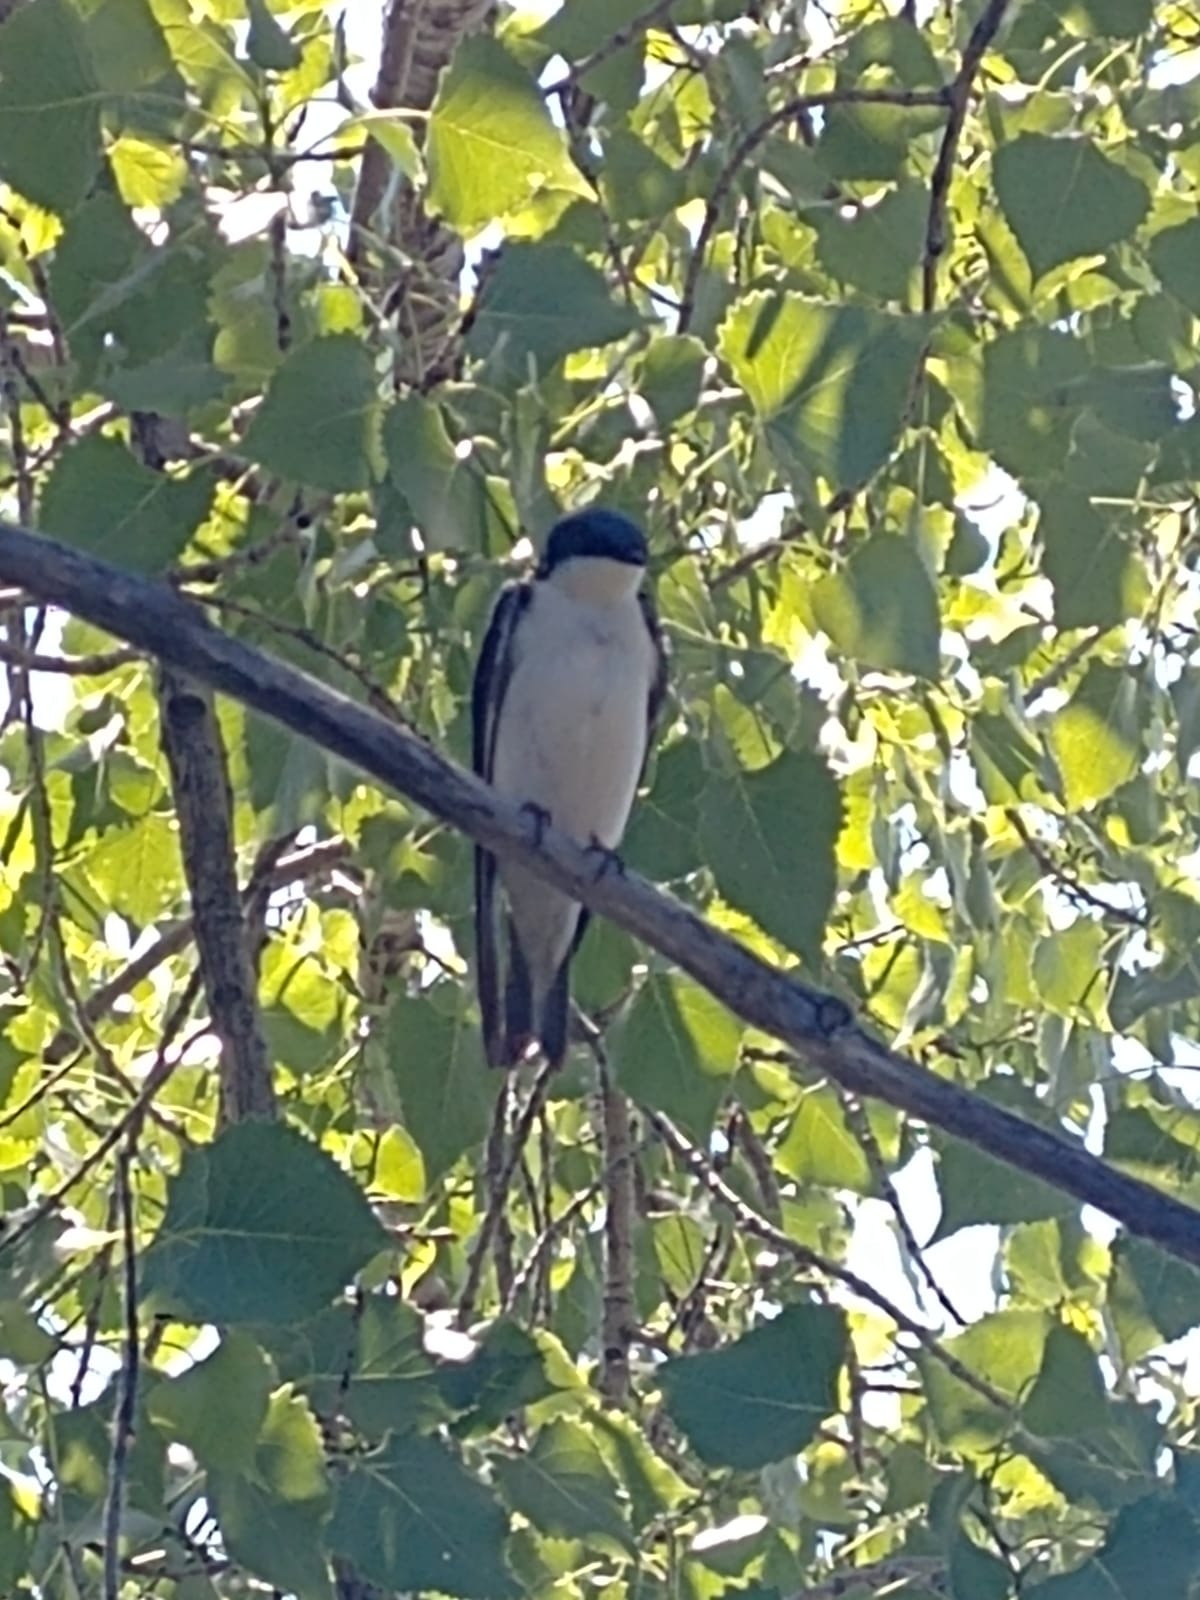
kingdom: Animalia
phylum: Chordata
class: Aves
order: Passeriformes
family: Hirundinidae
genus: Tachycineta
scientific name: Tachycineta bicolor
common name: Tree swallow
